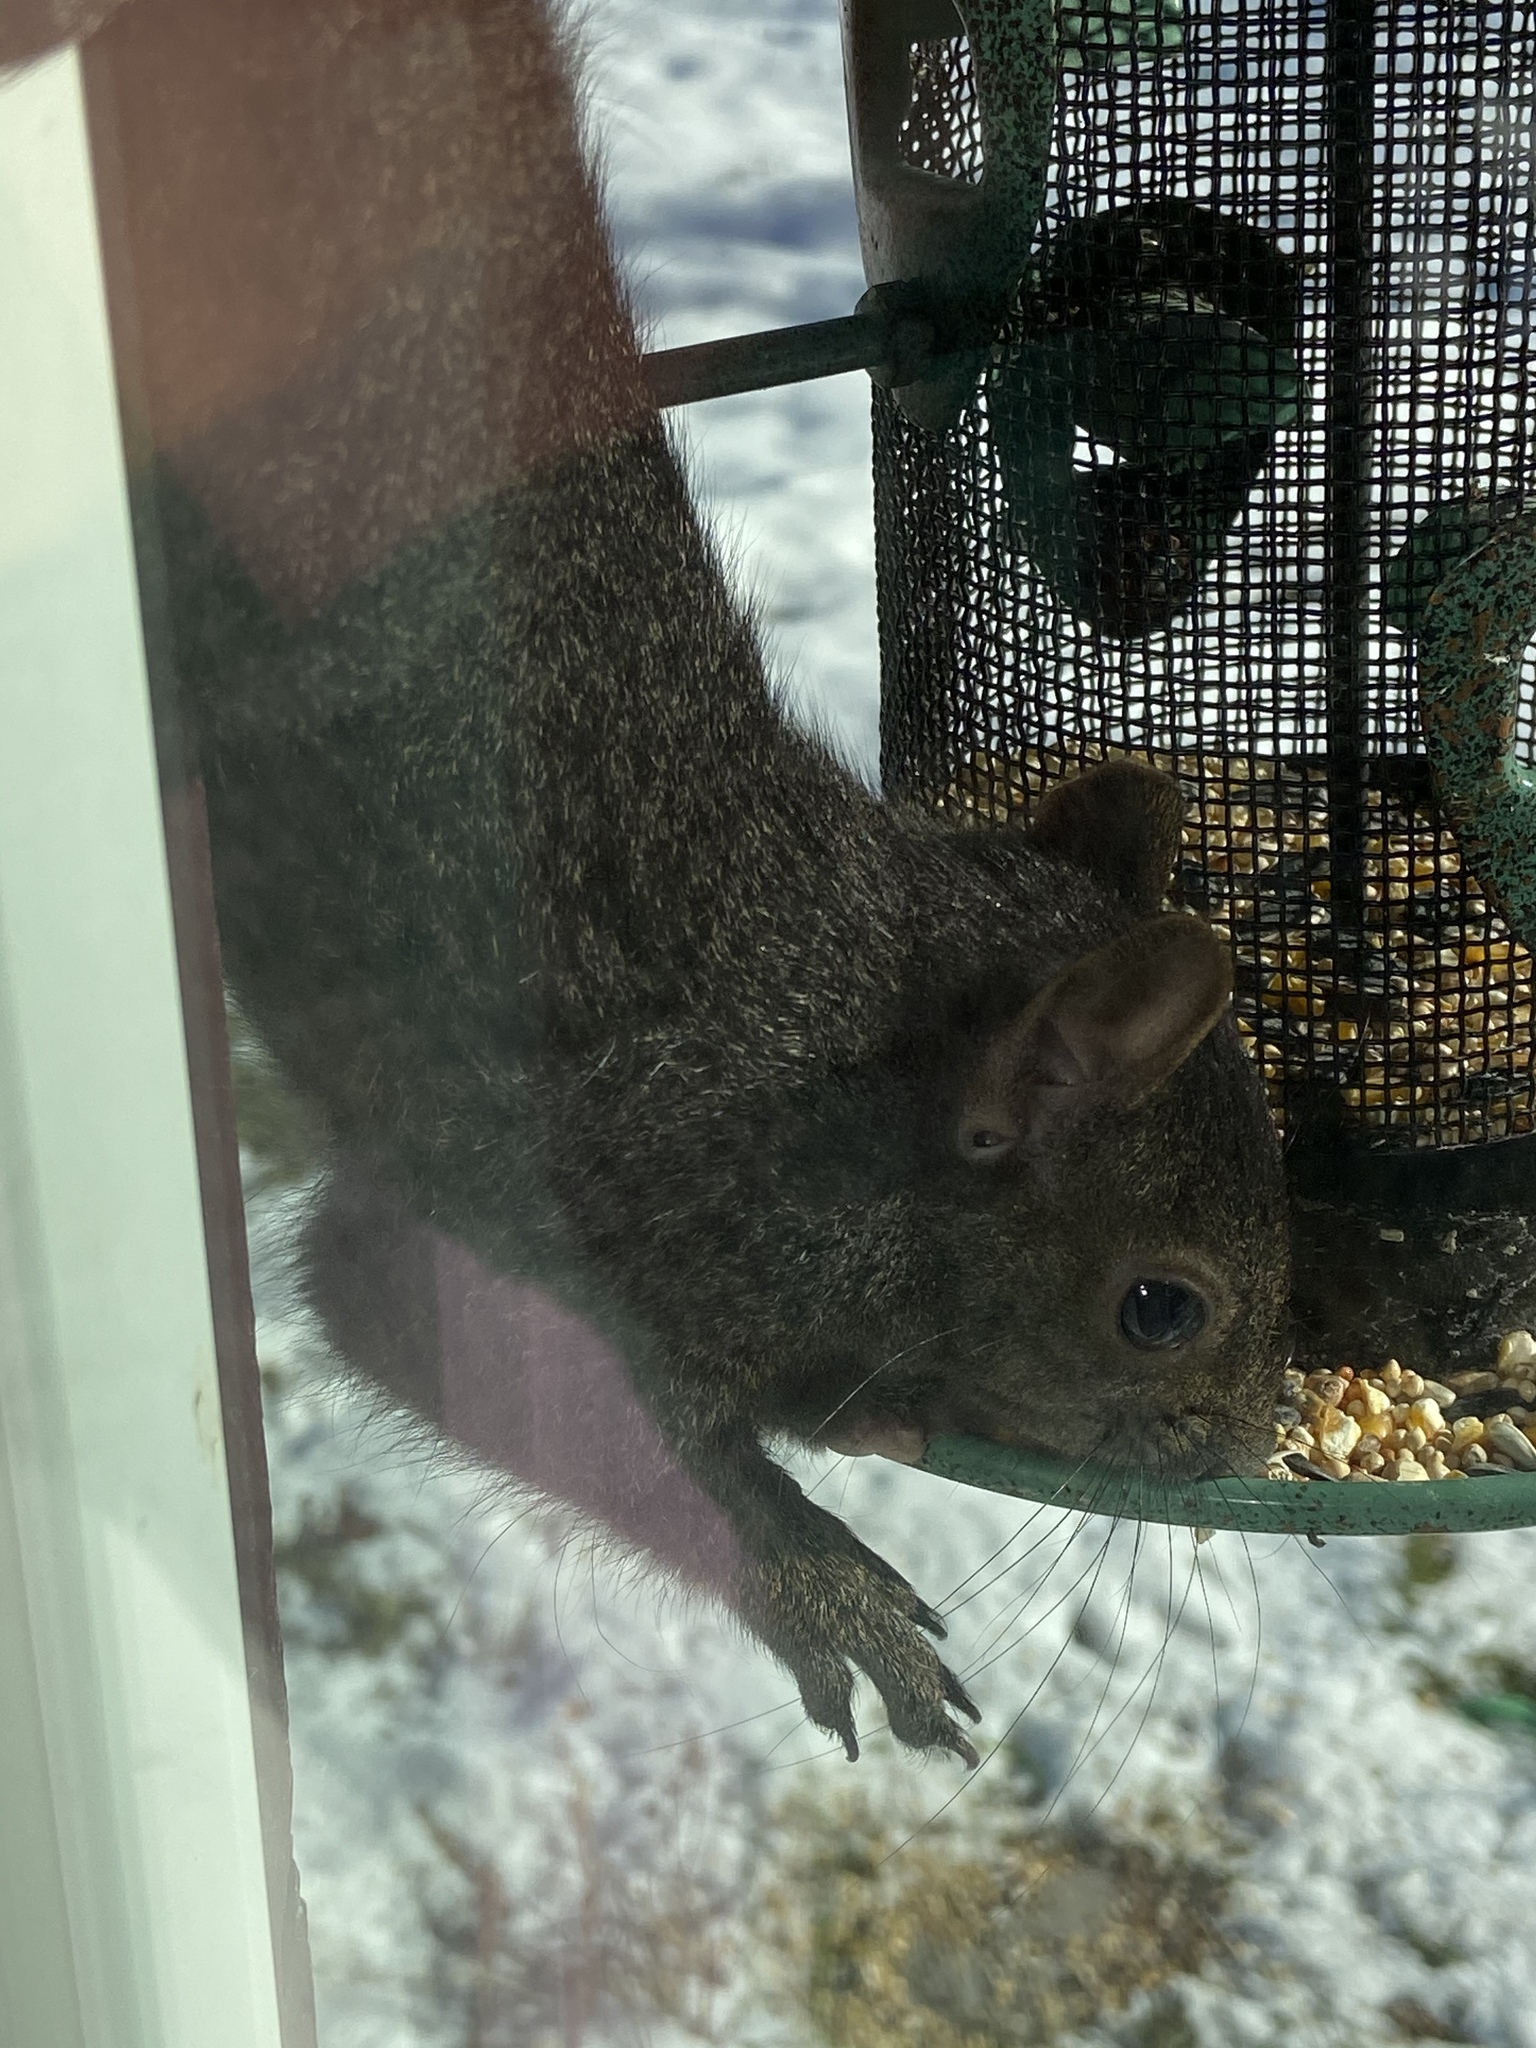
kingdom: Animalia
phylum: Chordata
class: Mammalia
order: Rodentia
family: Sciuridae
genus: Sciurus
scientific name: Sciurus carolinensis
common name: Eastern gray squirrel
